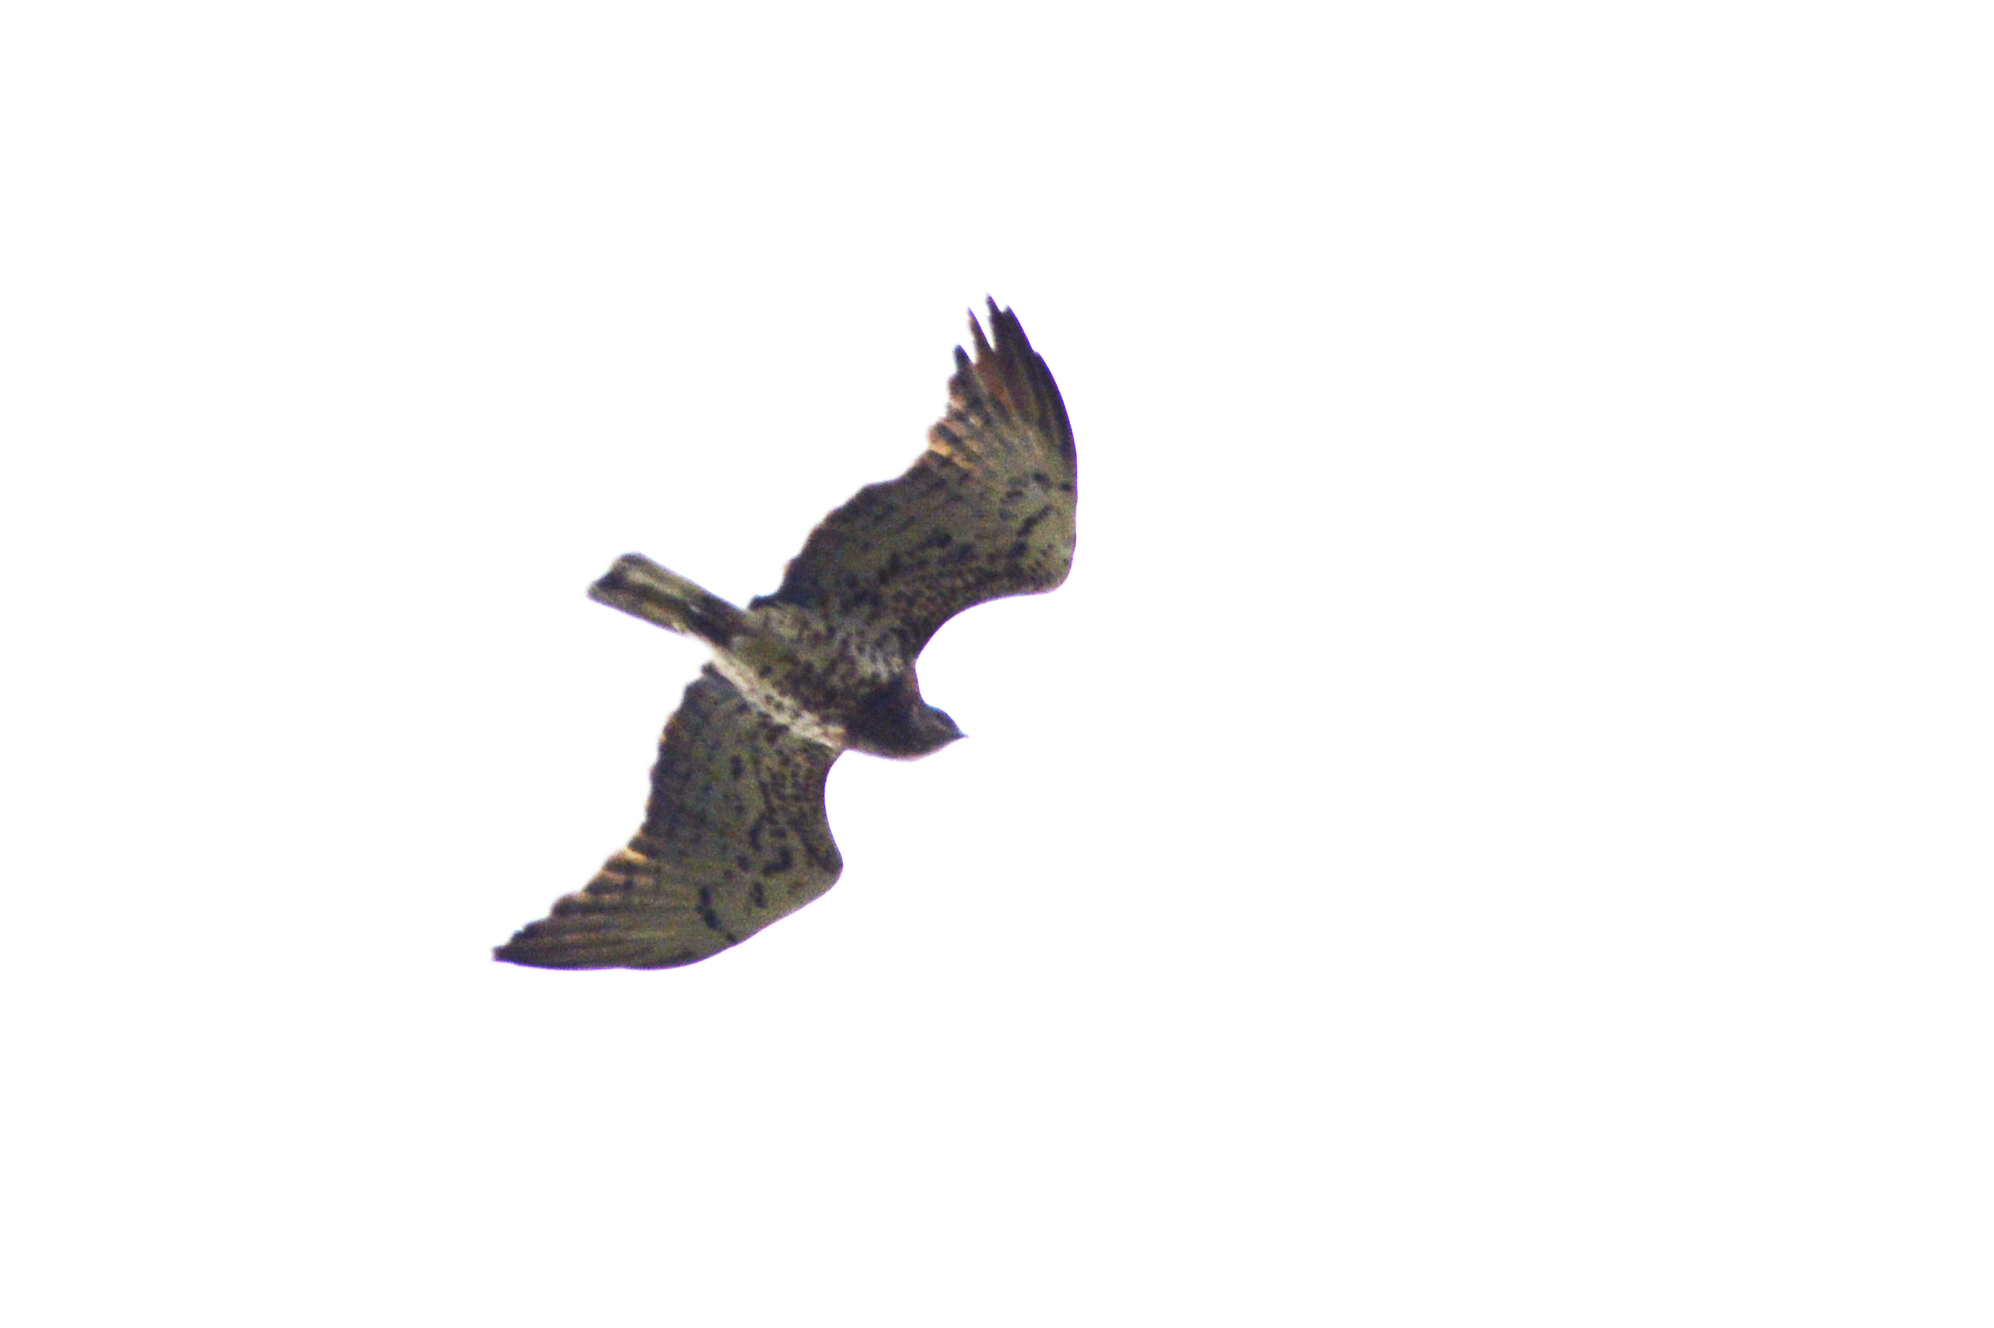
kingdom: Animalia
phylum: Chordata
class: Aves
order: Accipitriformes
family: Accipitridae
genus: Circaetus
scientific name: Circaetus gallicus
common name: Short-toed snake eagle
